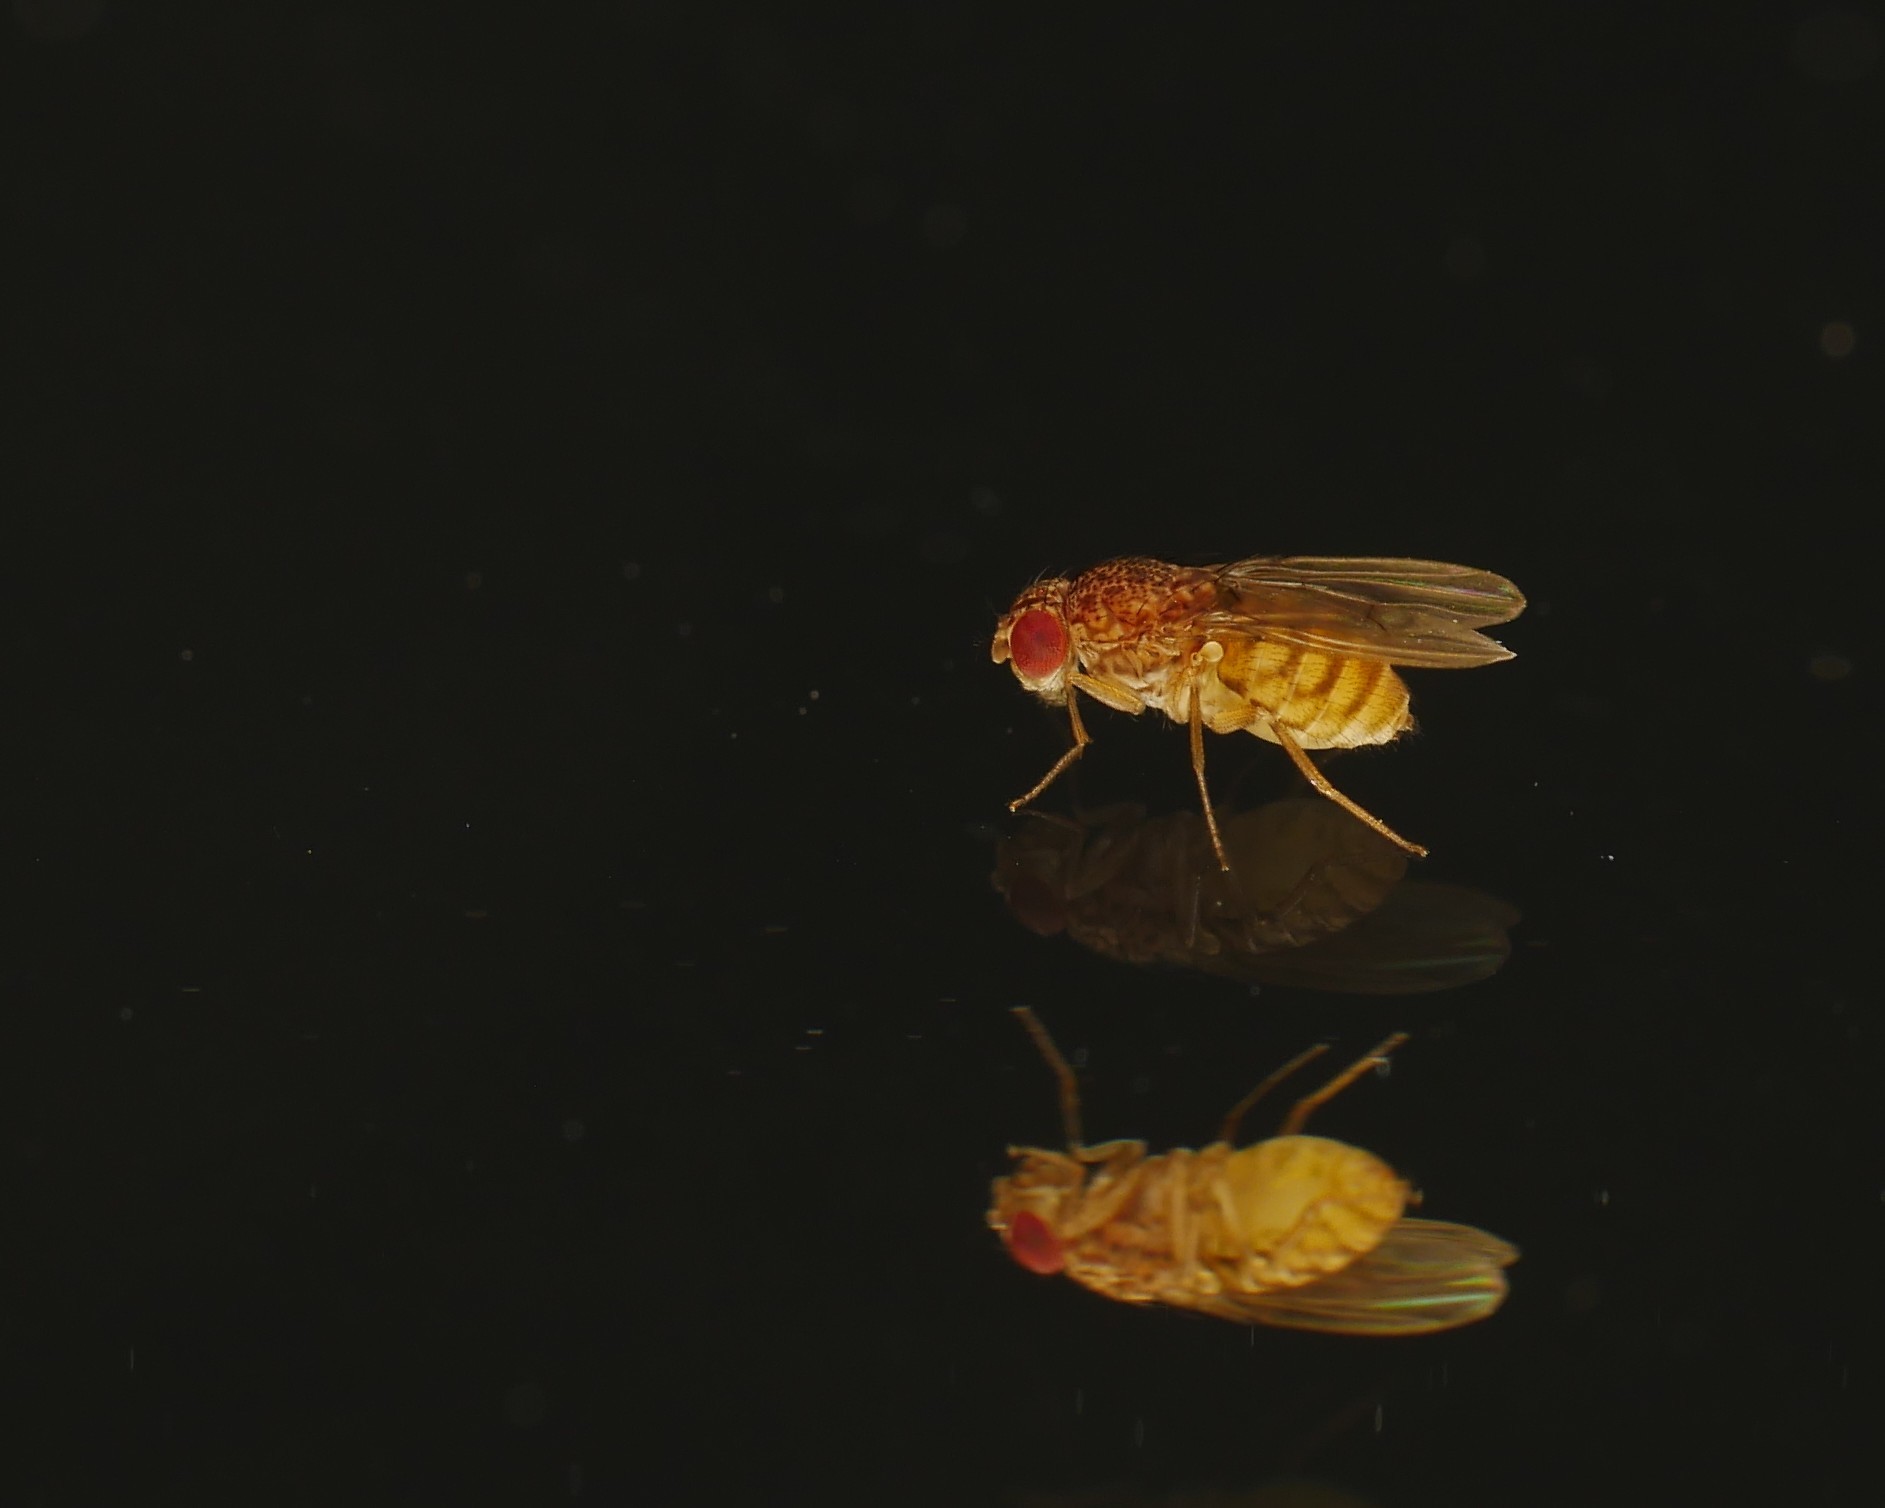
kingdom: Animalia
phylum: Arthropoda
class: Insecta
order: Diptera
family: Drosophilidae
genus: Drosophila
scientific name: Drosophila repleta
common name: Pomace fly
